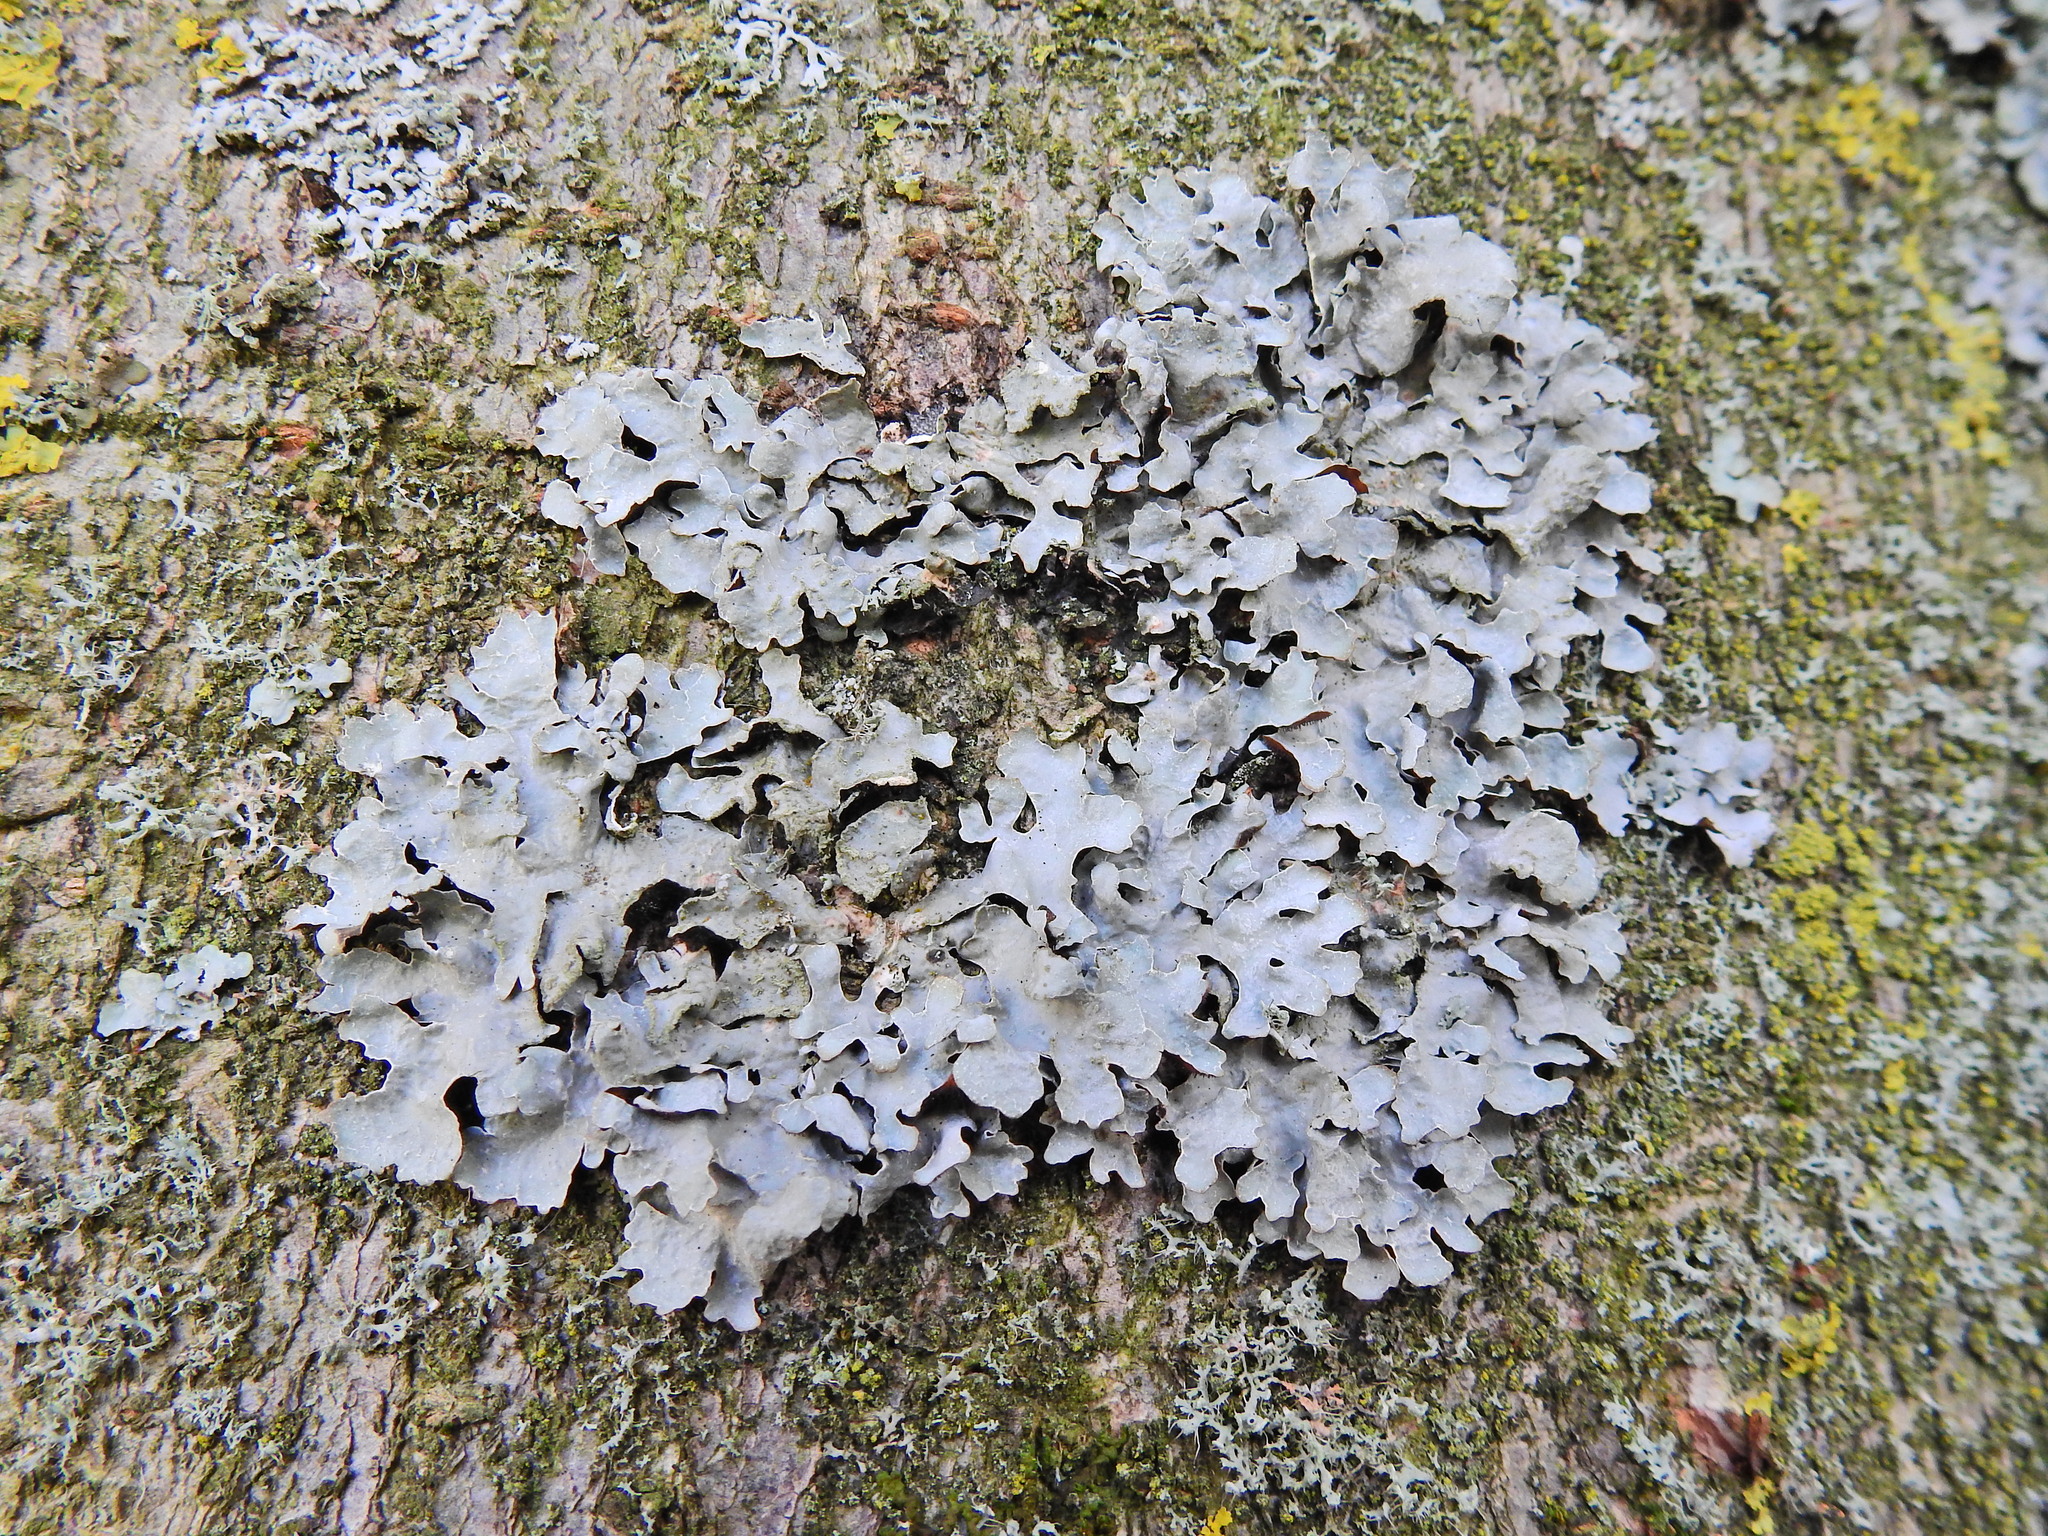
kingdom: Fungi
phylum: Ascomycota
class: Lecanoromycetes
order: Lecanorales
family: Parmeliaceae
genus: Parmelia
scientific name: Parmelia sulcata
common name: Netted shield lichen
